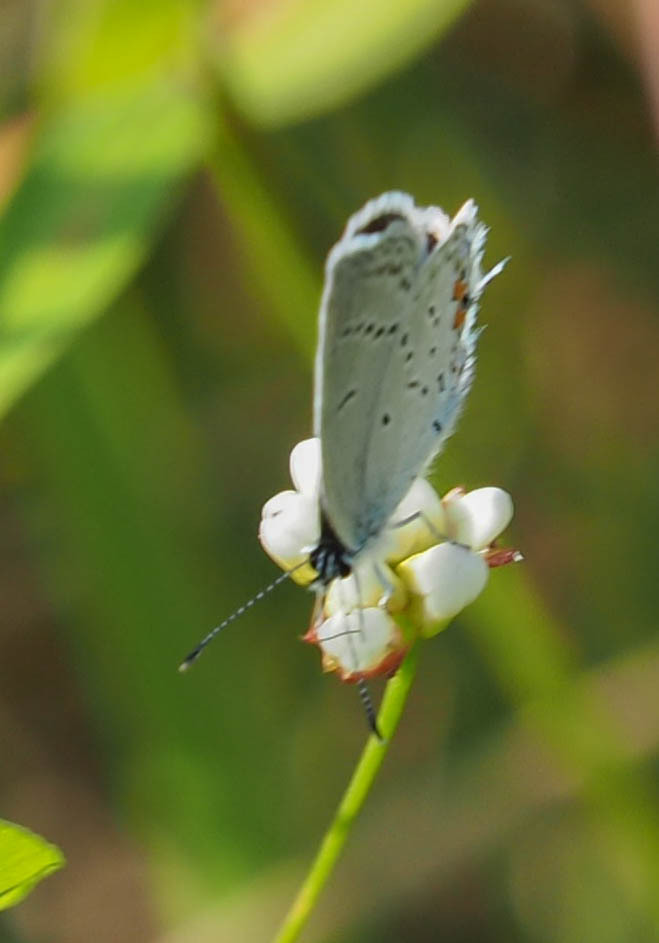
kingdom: Animalia
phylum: Arthropoda
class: Insecta
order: Lepidoptera
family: Lycaenidae
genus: Elkalyce
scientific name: Elkalyce comyntas
